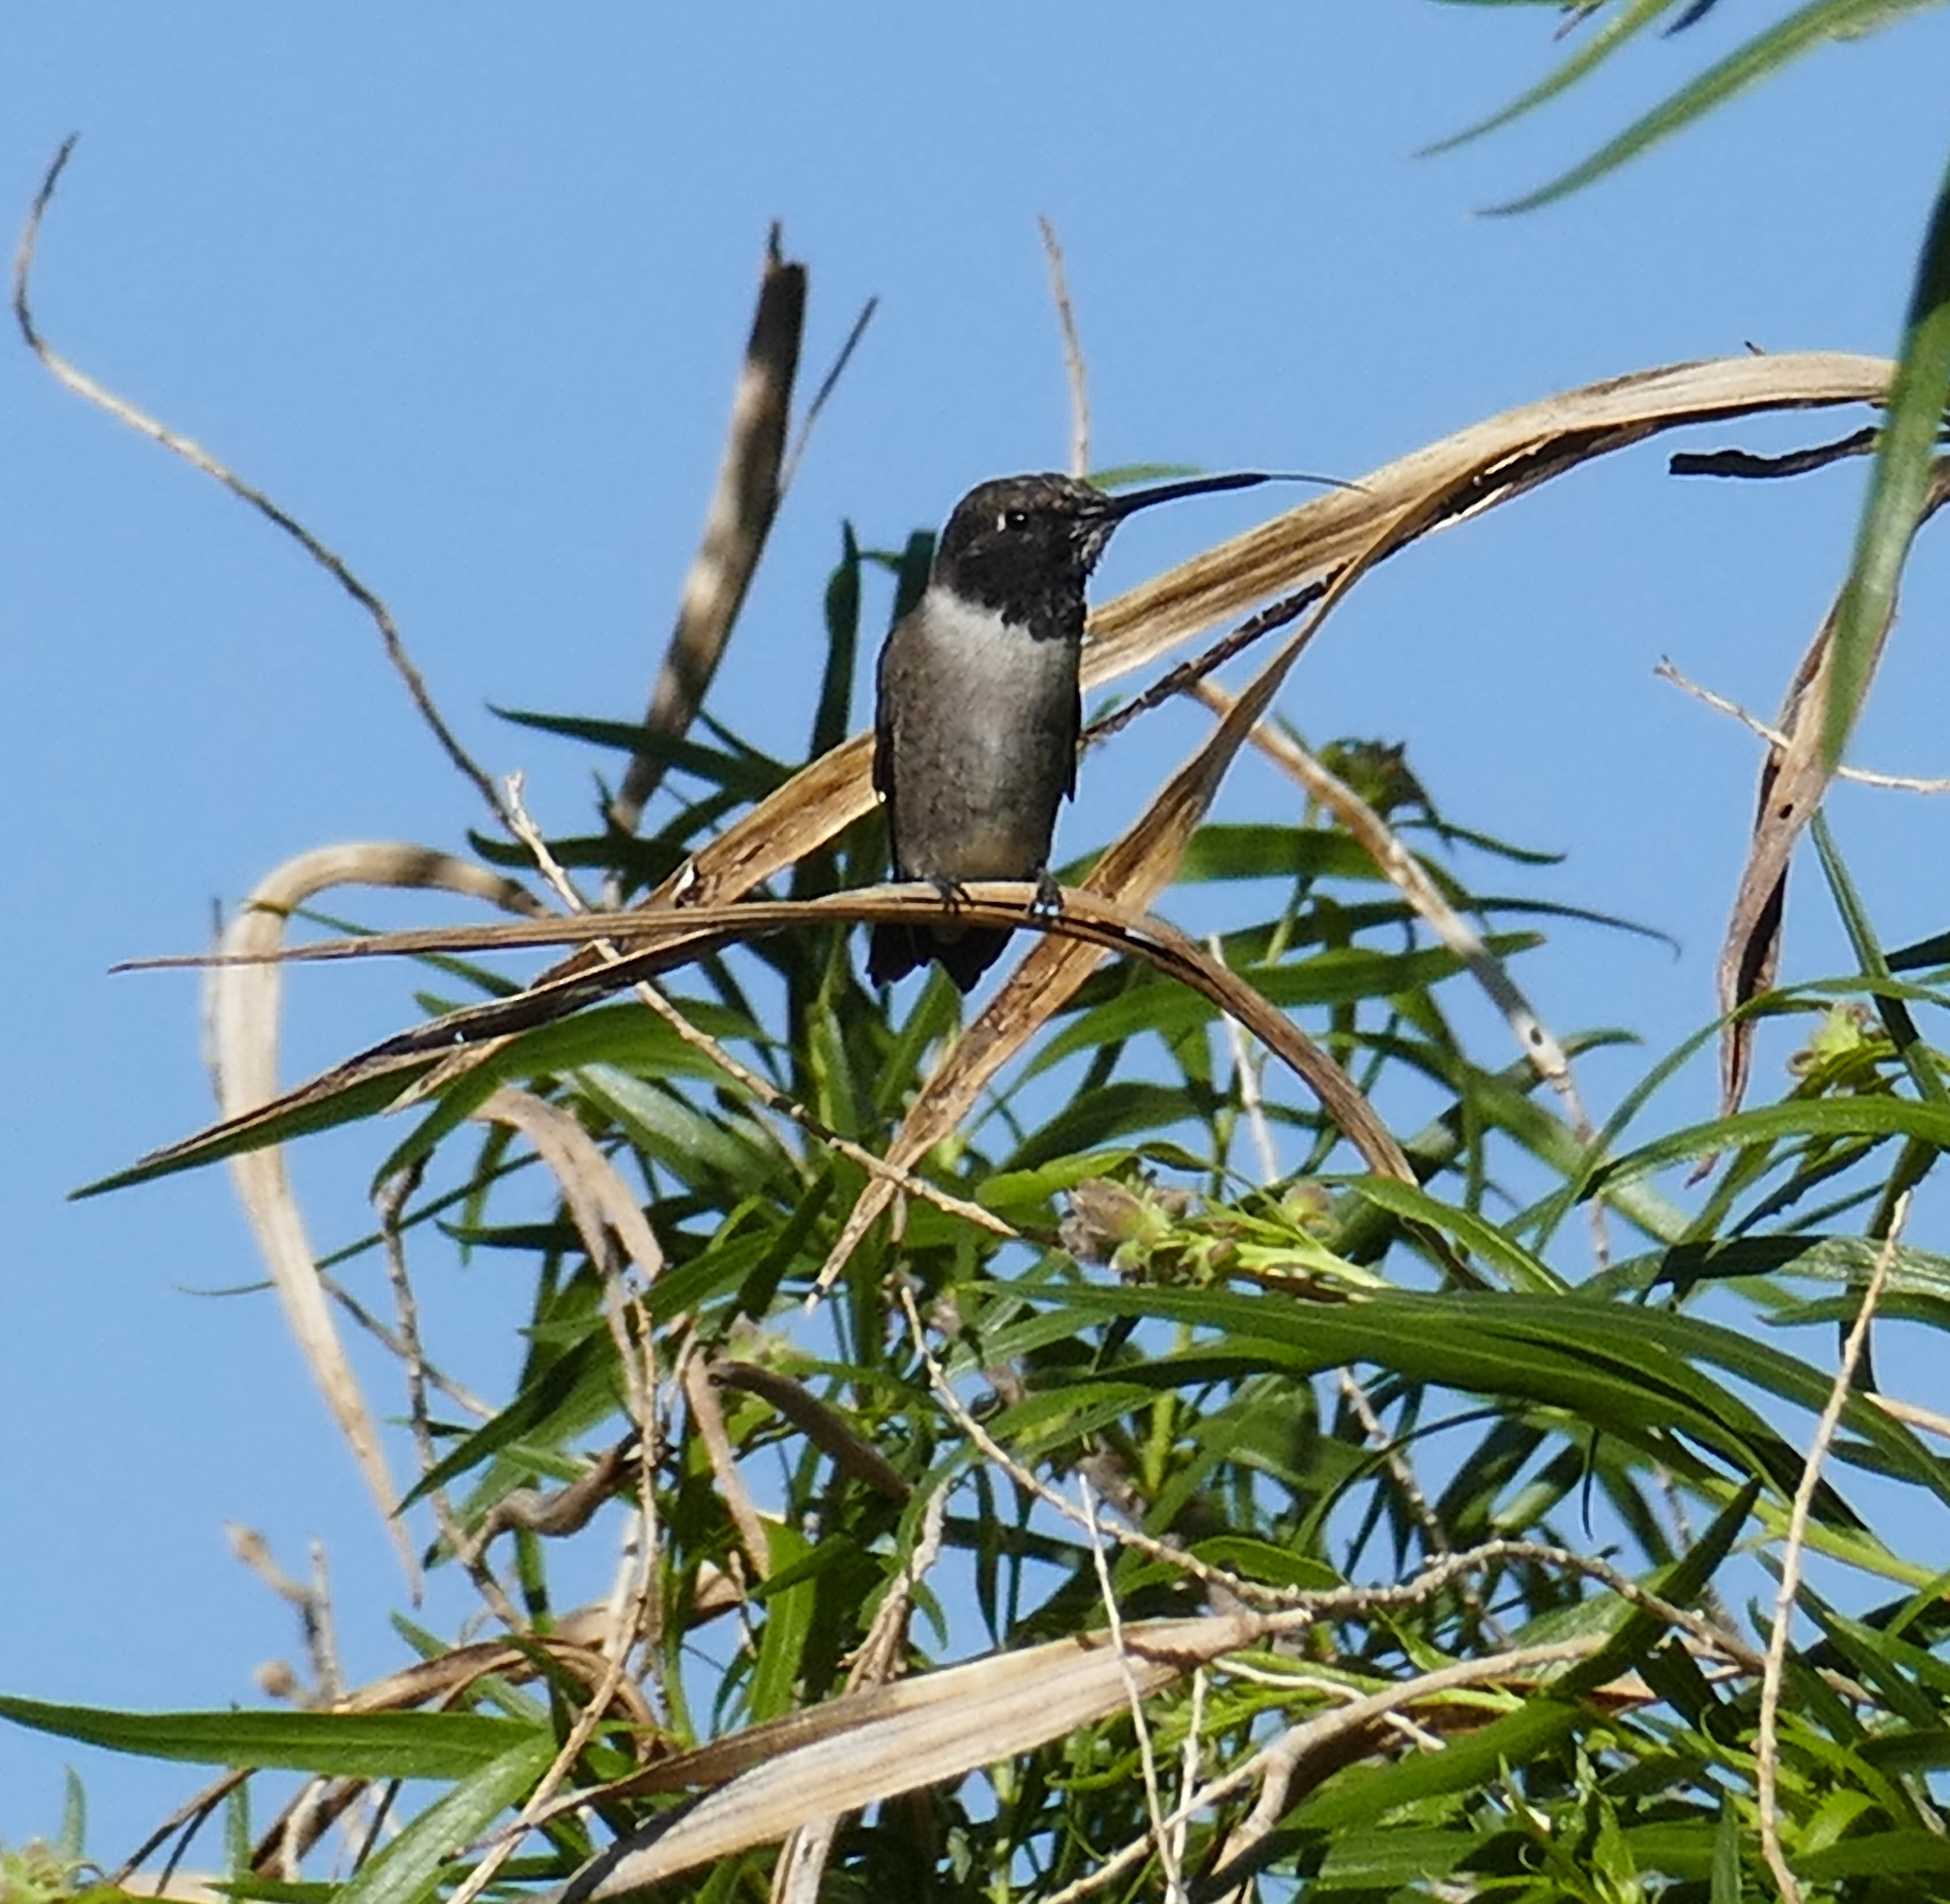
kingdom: Animalia
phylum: Chordata
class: Aves
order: Apodiformes
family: Trochilidae
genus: Archilochus
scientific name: Archilochus alexandri
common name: Black-chinned hummingbird
